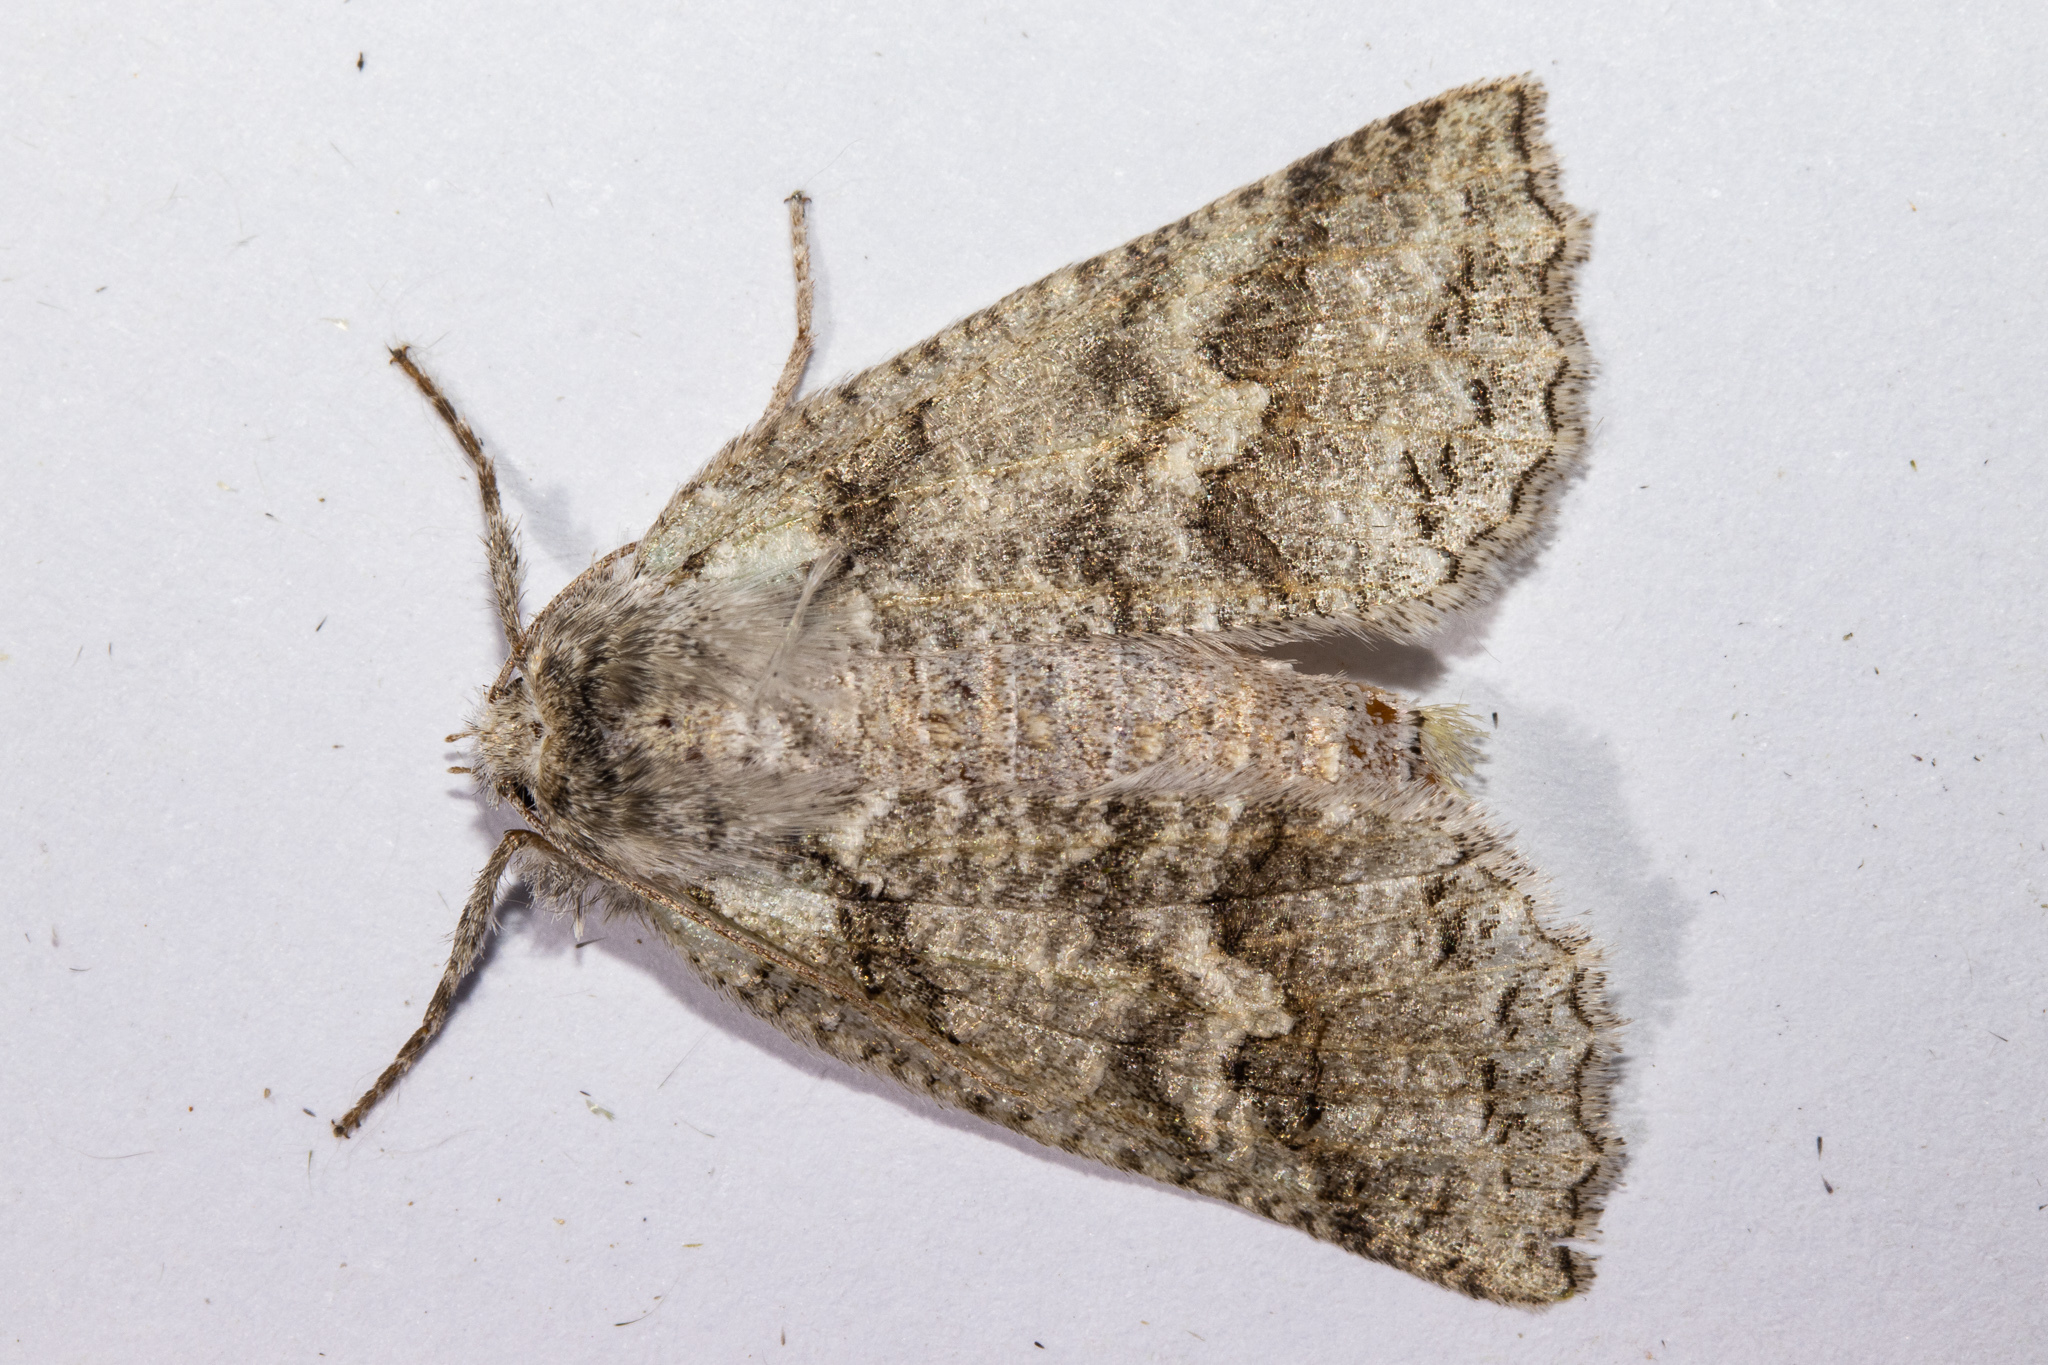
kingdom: Animalia
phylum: Arthropoda
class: Insecta
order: Lepidoptera
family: Geometridae
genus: Declana
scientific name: Declana floccosa
